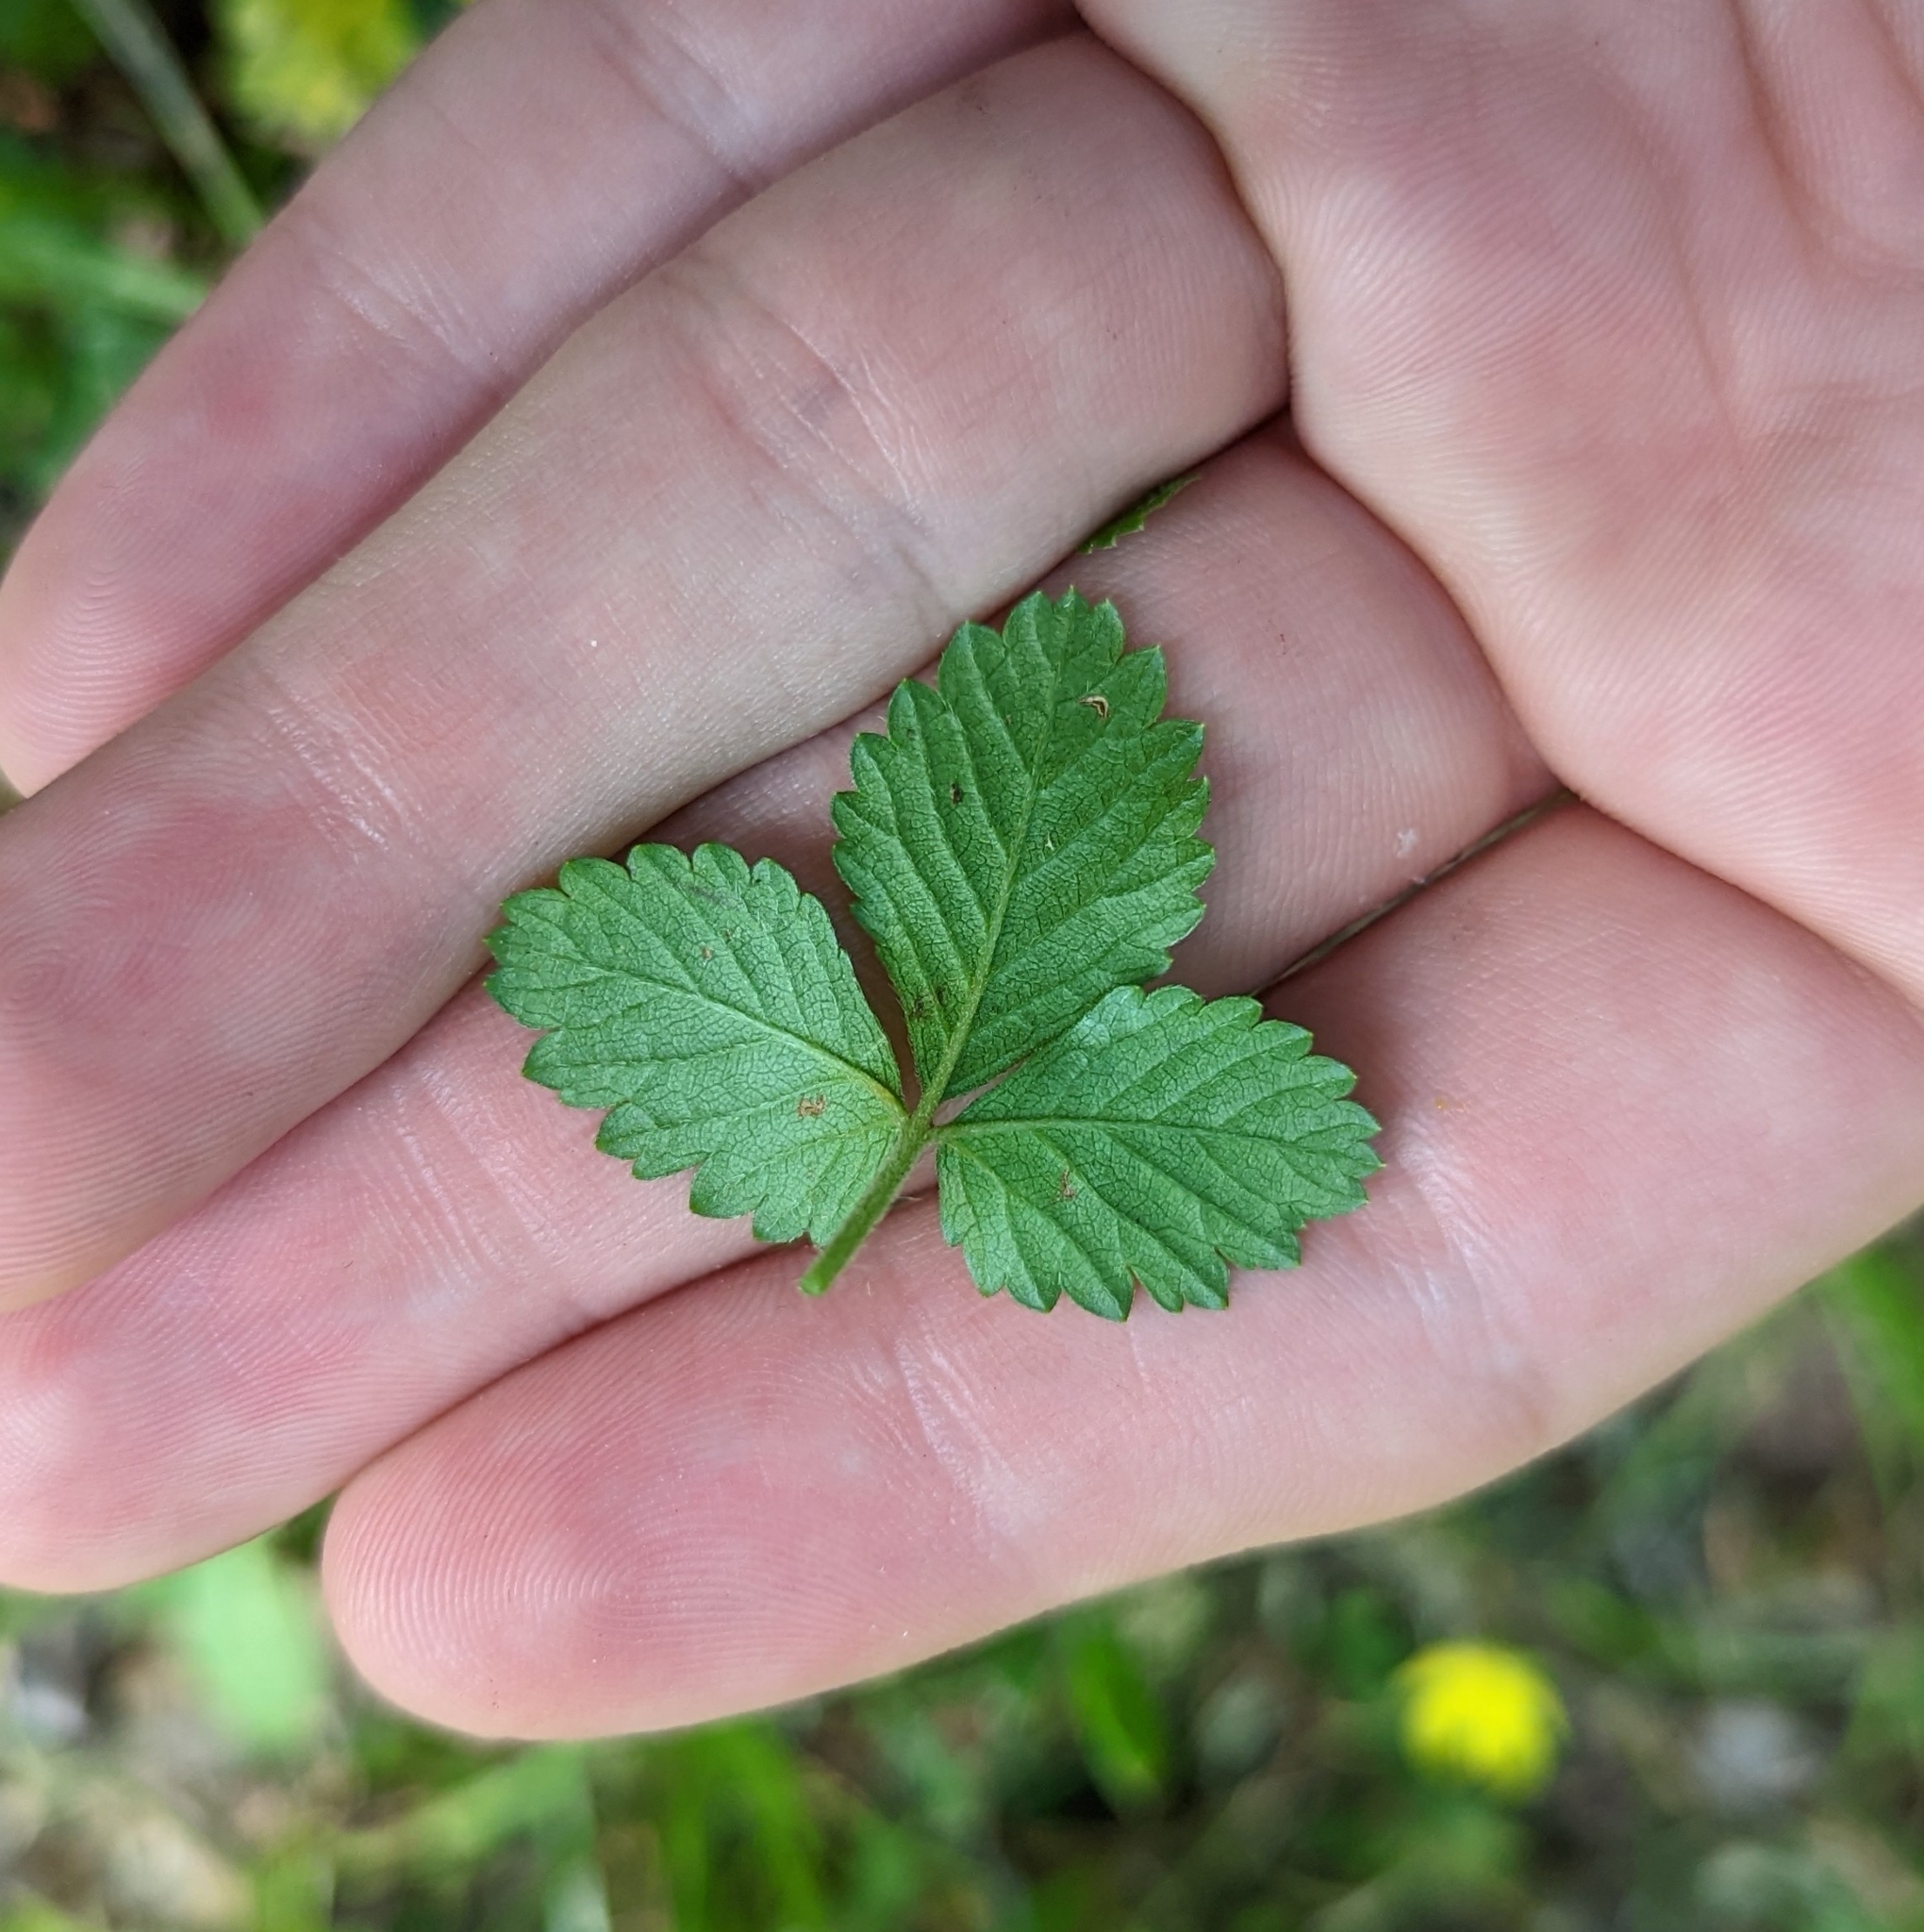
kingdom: Plantae
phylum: Tracheophyta
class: Magnoliopsida
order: Rosales
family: Rosaceae
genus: Potentilla
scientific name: Potentilla indica
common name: Yellow-flowered strawberry
